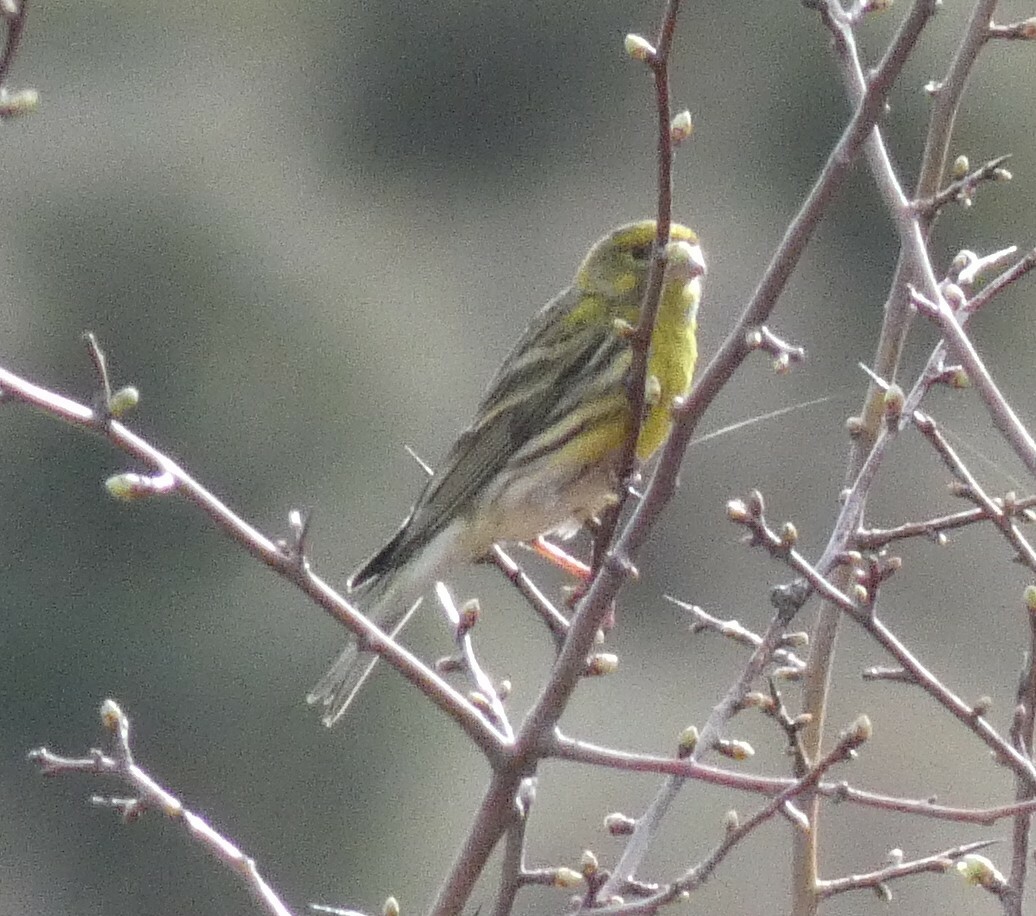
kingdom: Animalia
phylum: Chordata
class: Aves
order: Passeriformes
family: Fringillidae
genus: Serinus
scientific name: Serinus serinus
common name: European serin
